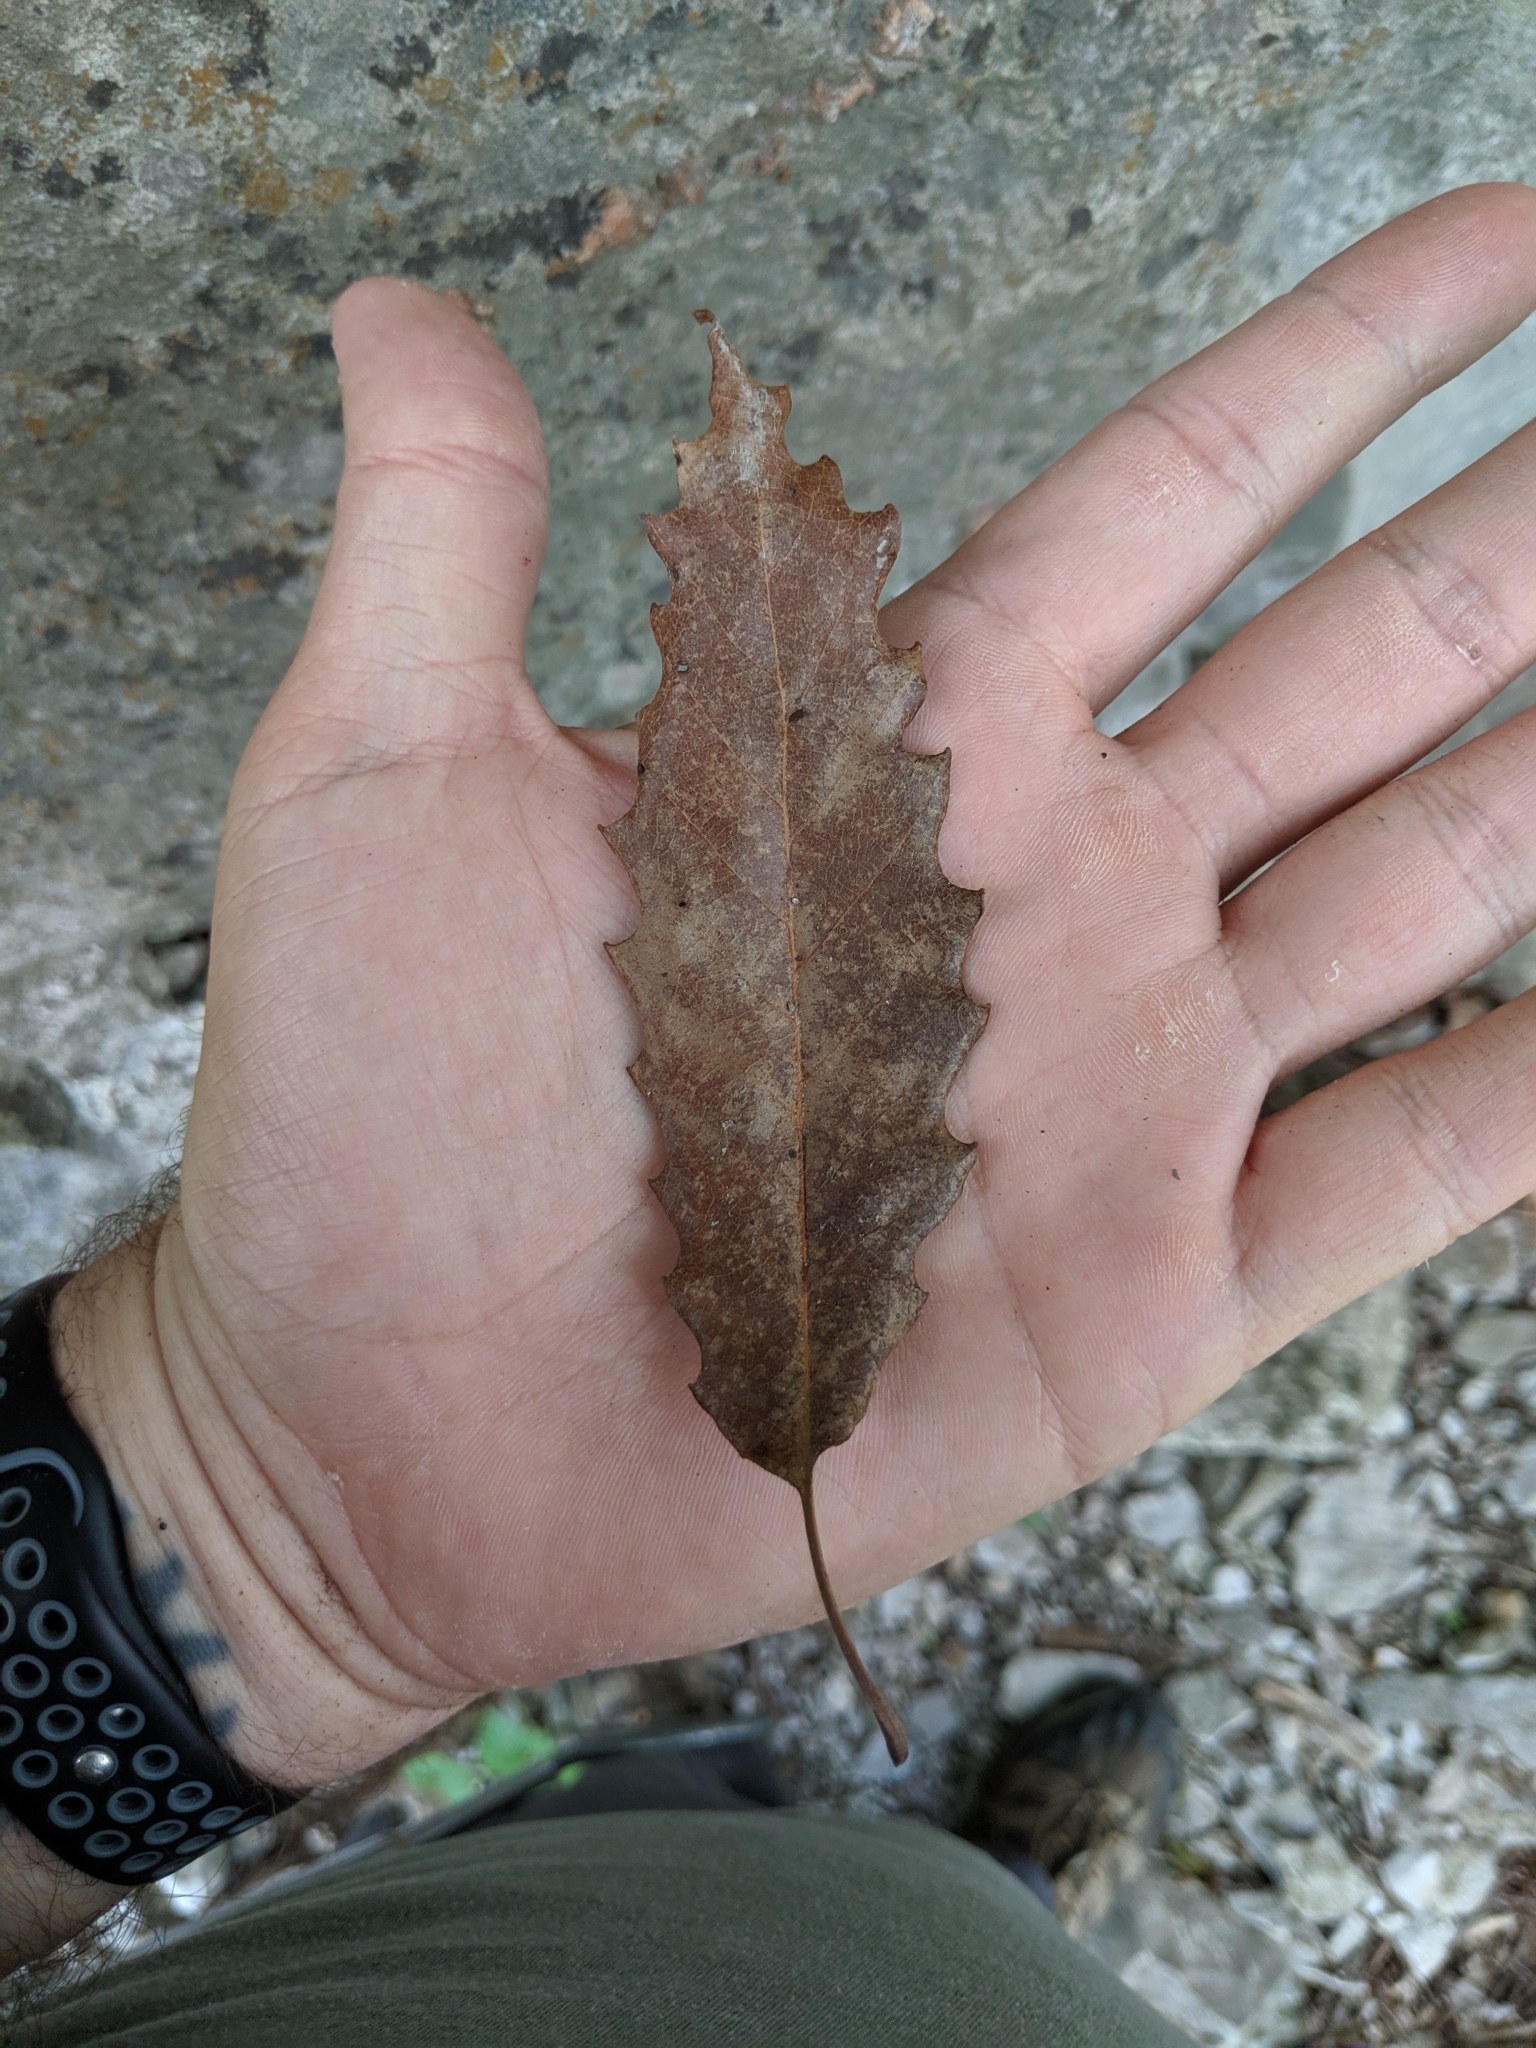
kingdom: Plantae
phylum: Tracheophyta
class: Magnoliopsida
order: Fagales
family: Fagaceae
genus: Quercus
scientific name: Quercus muehlenbergii
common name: Chinkapin oak
